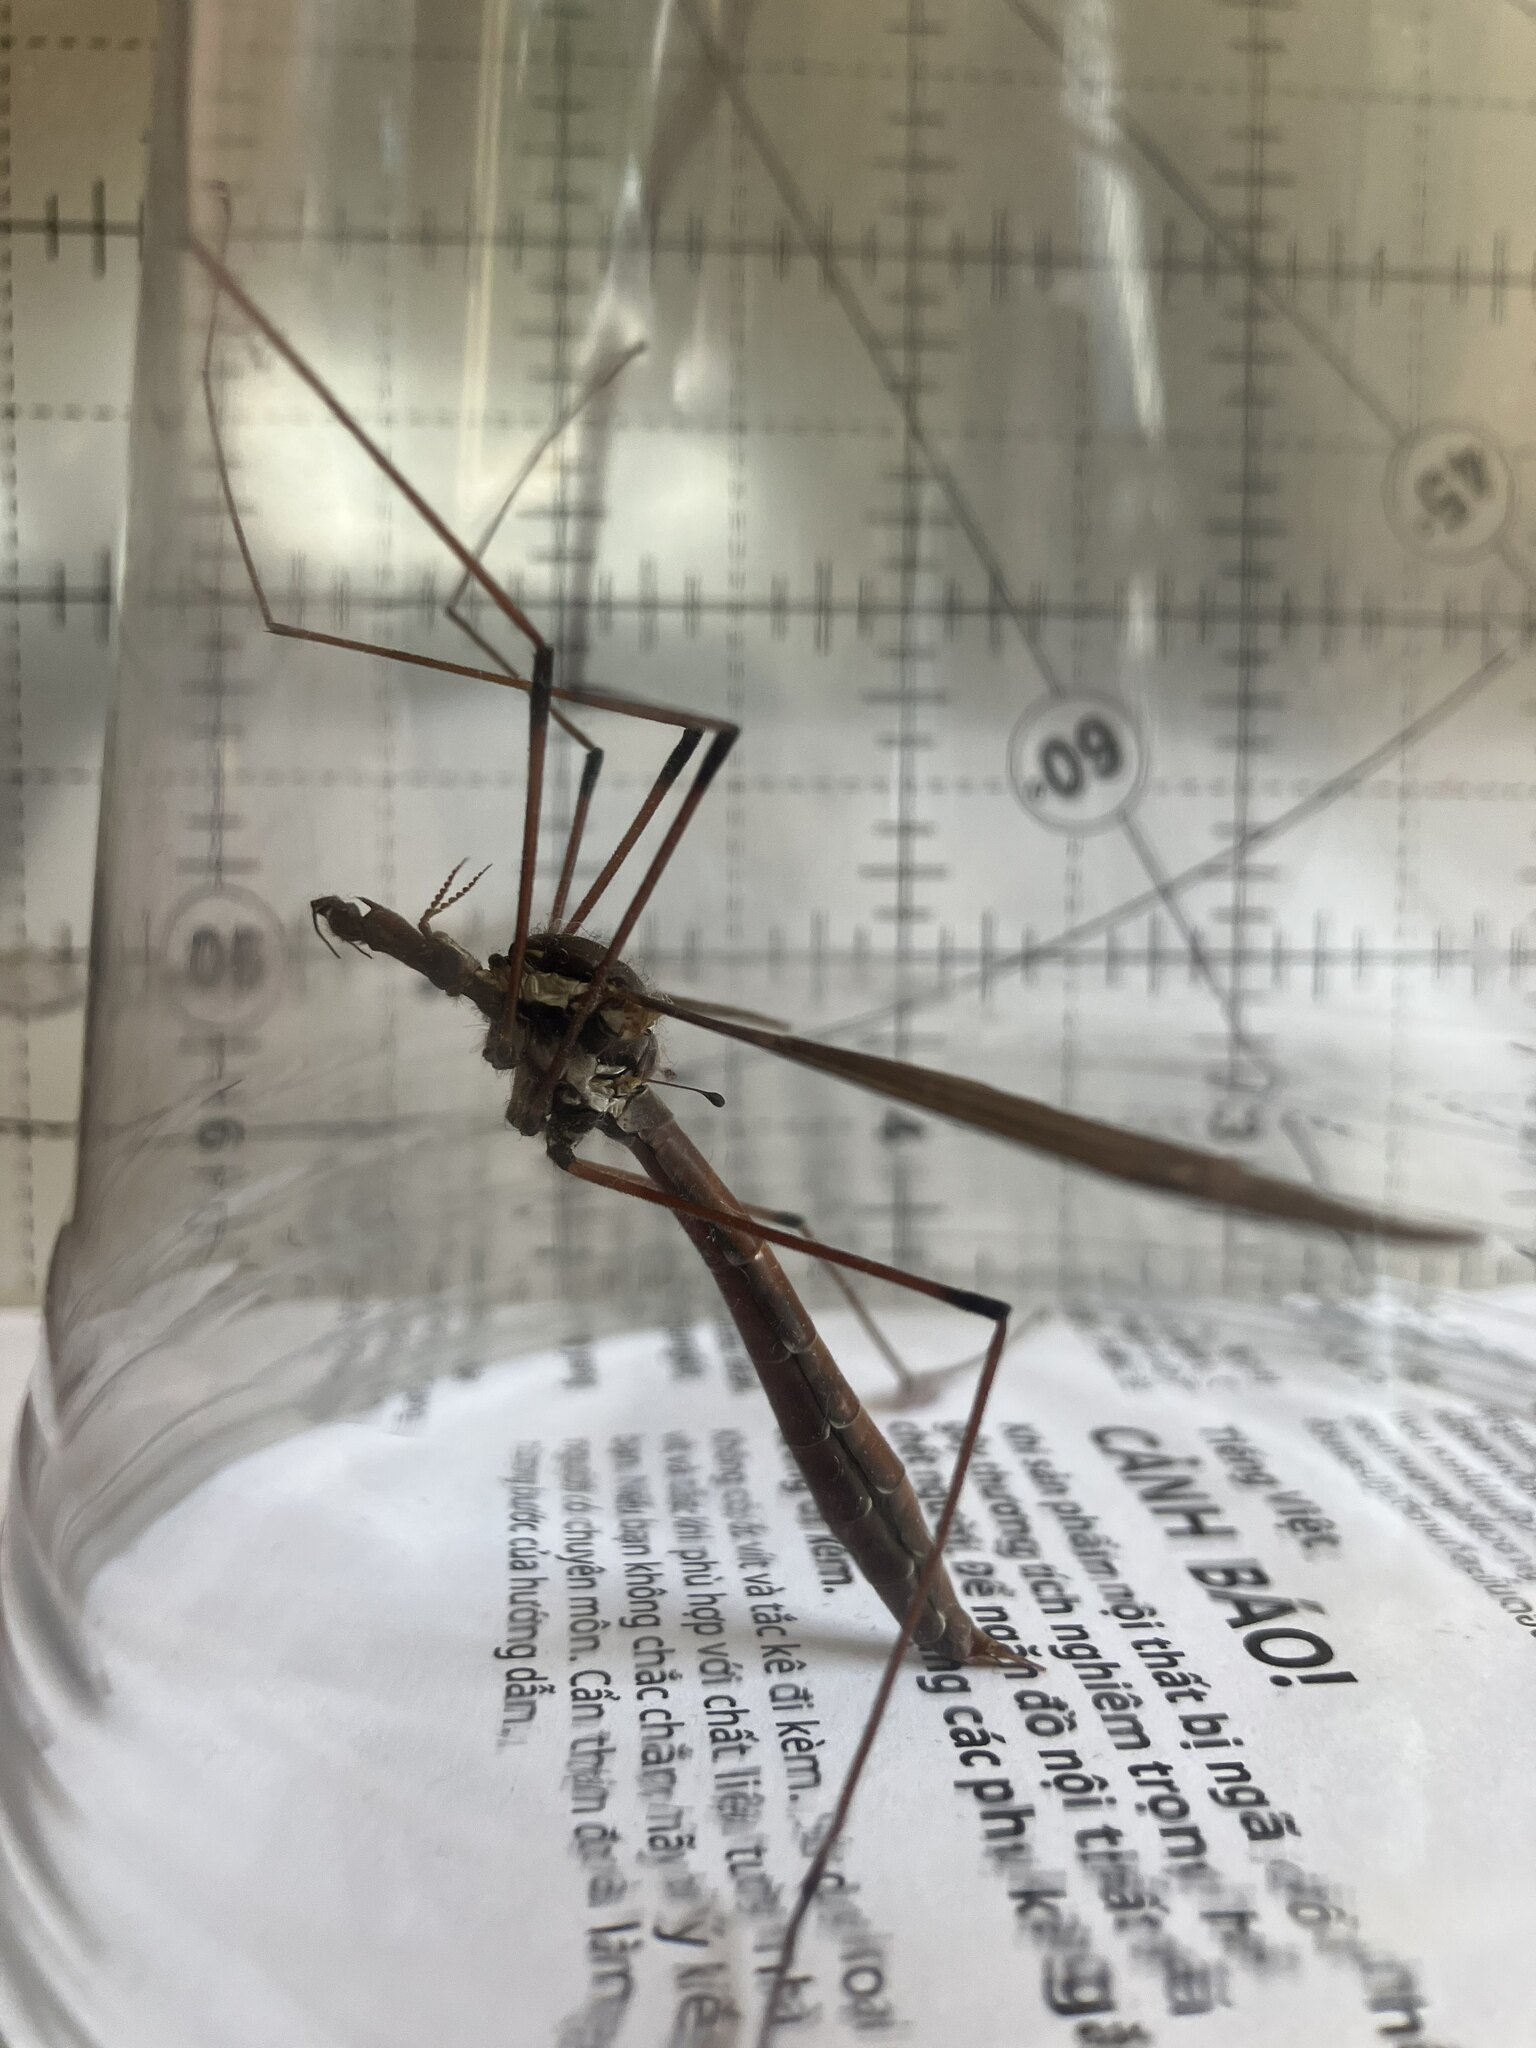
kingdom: Animalia
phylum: Arthropoda
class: Insecta
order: Diptera
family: Tipulidae
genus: Holorusia
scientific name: Holorusia hespera
